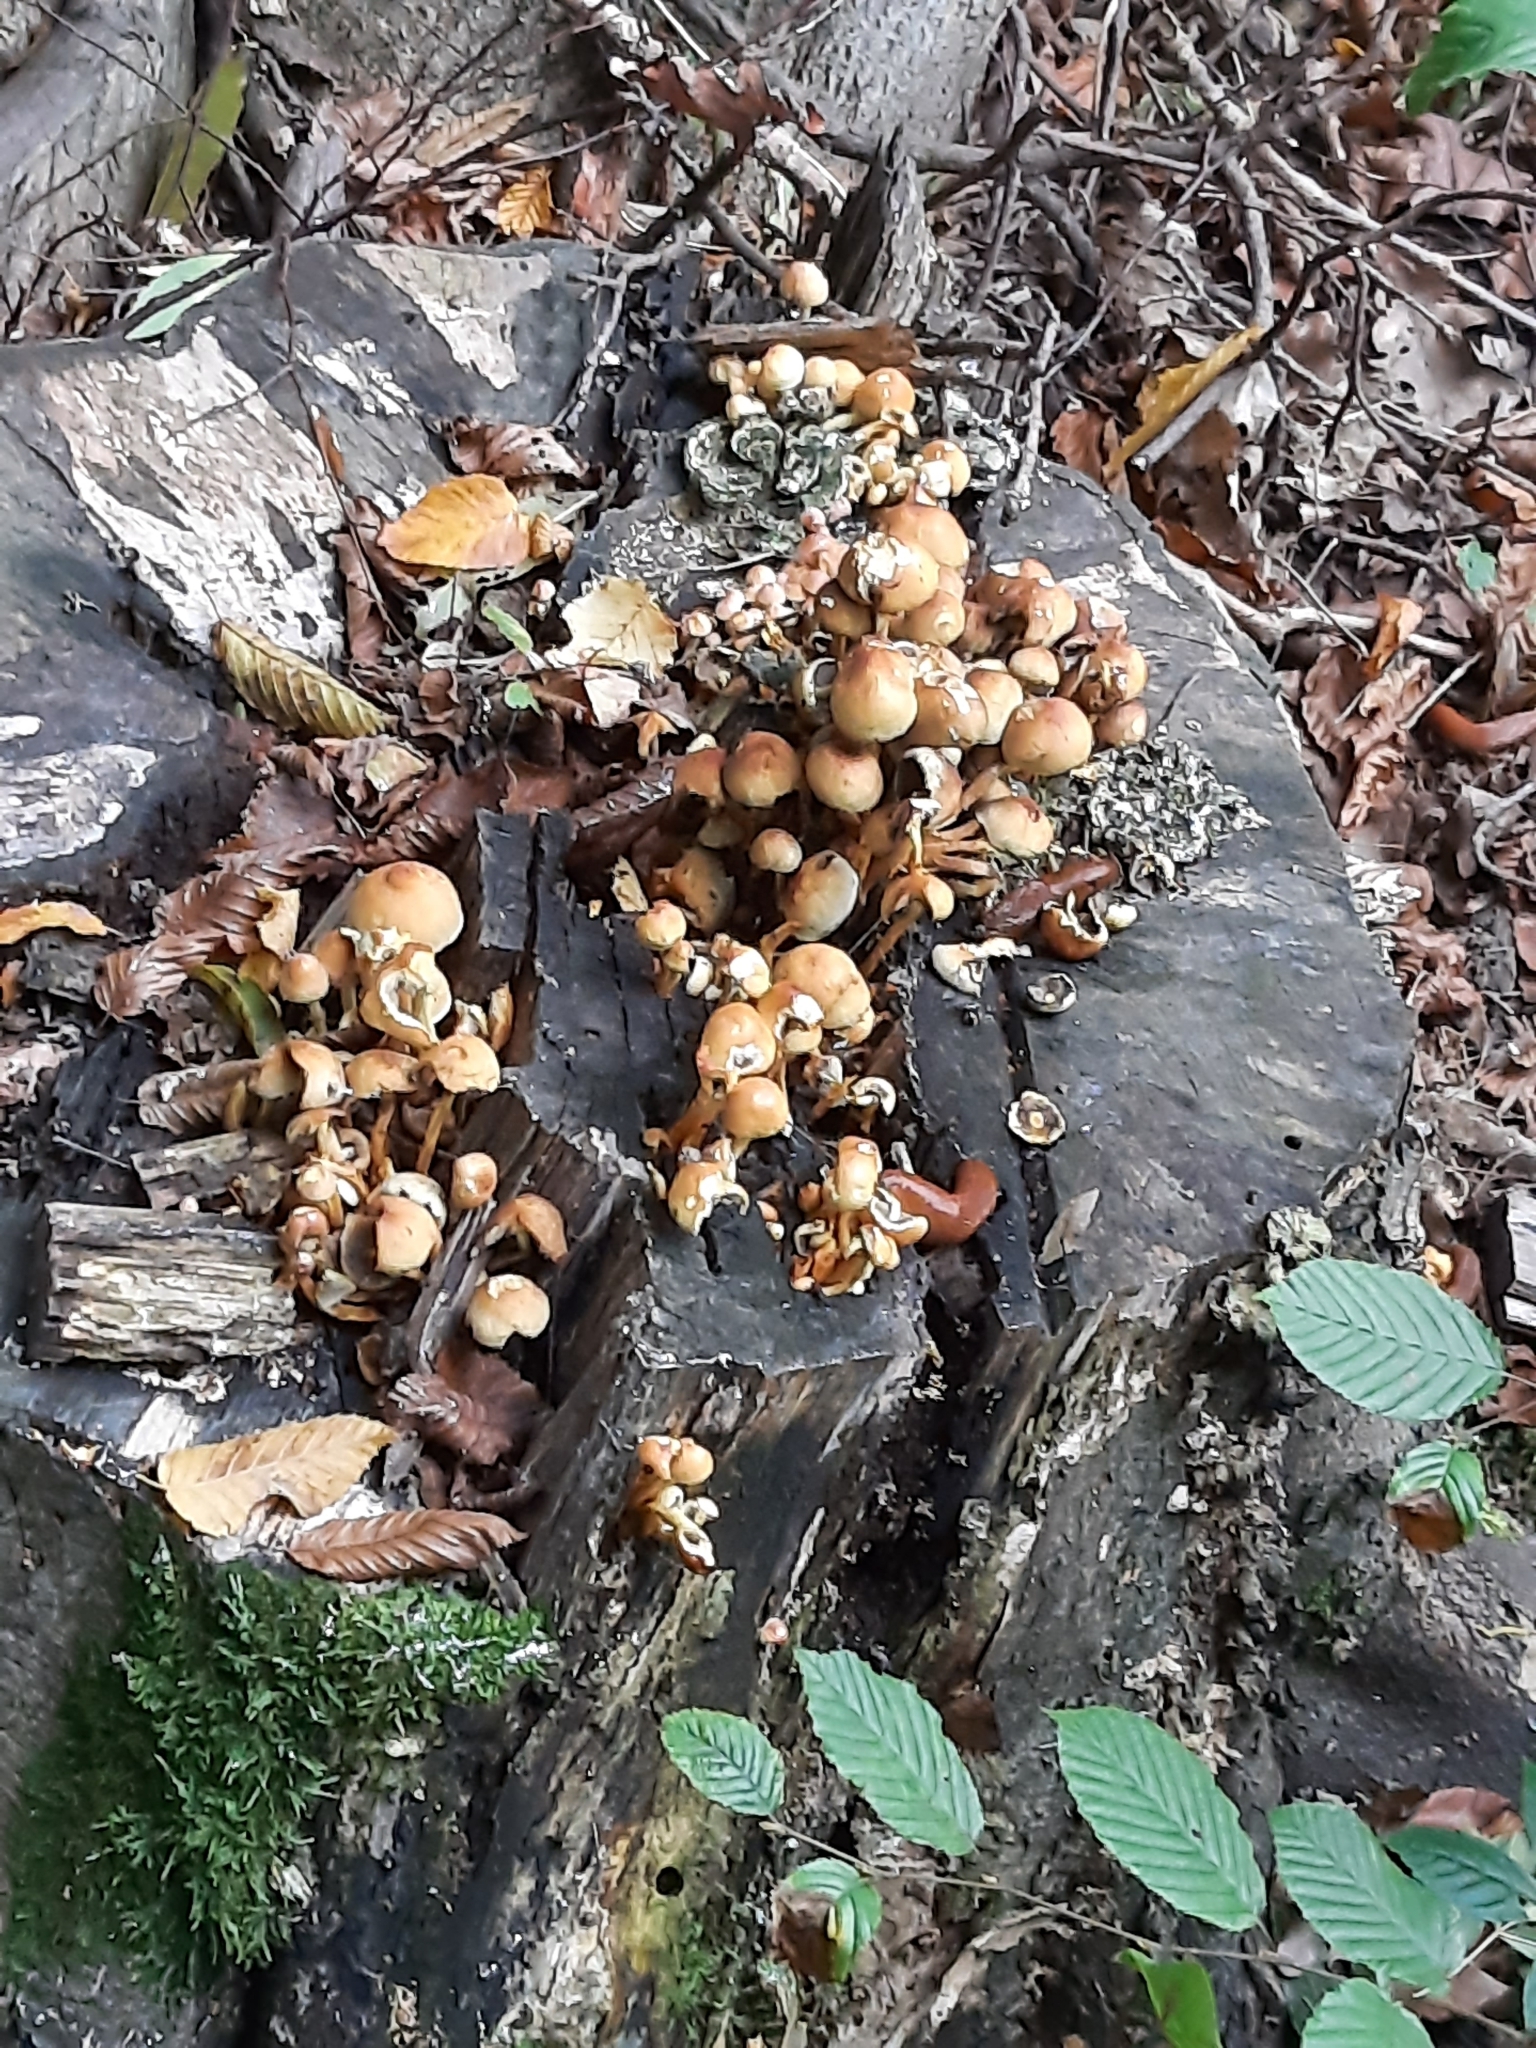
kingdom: Fungi
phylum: Basidiomycota
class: Agaricomycetes
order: Agaricales
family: Strophariaceae
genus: Hypholoma
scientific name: Hypholoma
